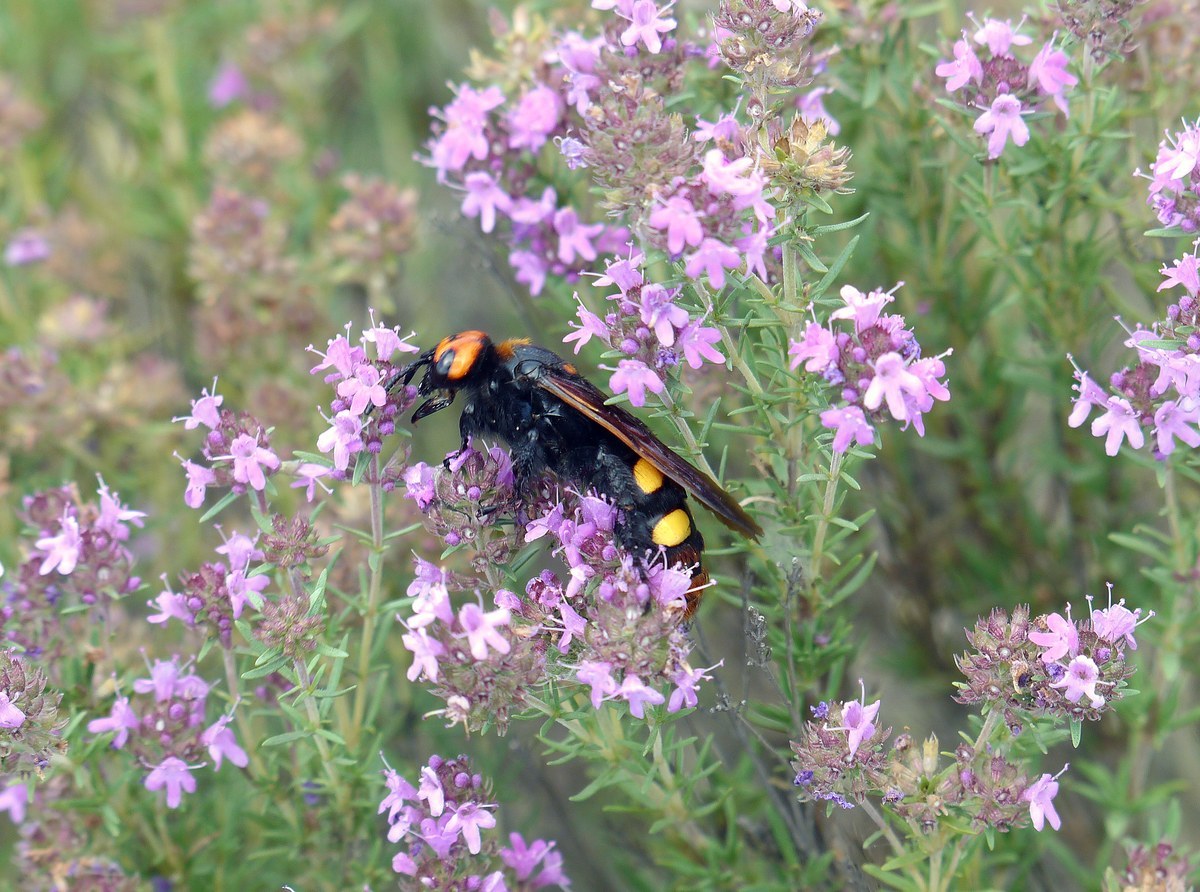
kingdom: Animalia
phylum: Arthropoda
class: Insecta
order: Hymenoptera
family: Scoliidae
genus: Megascolia
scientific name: Megascolia maculata
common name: Mammoth wasp
